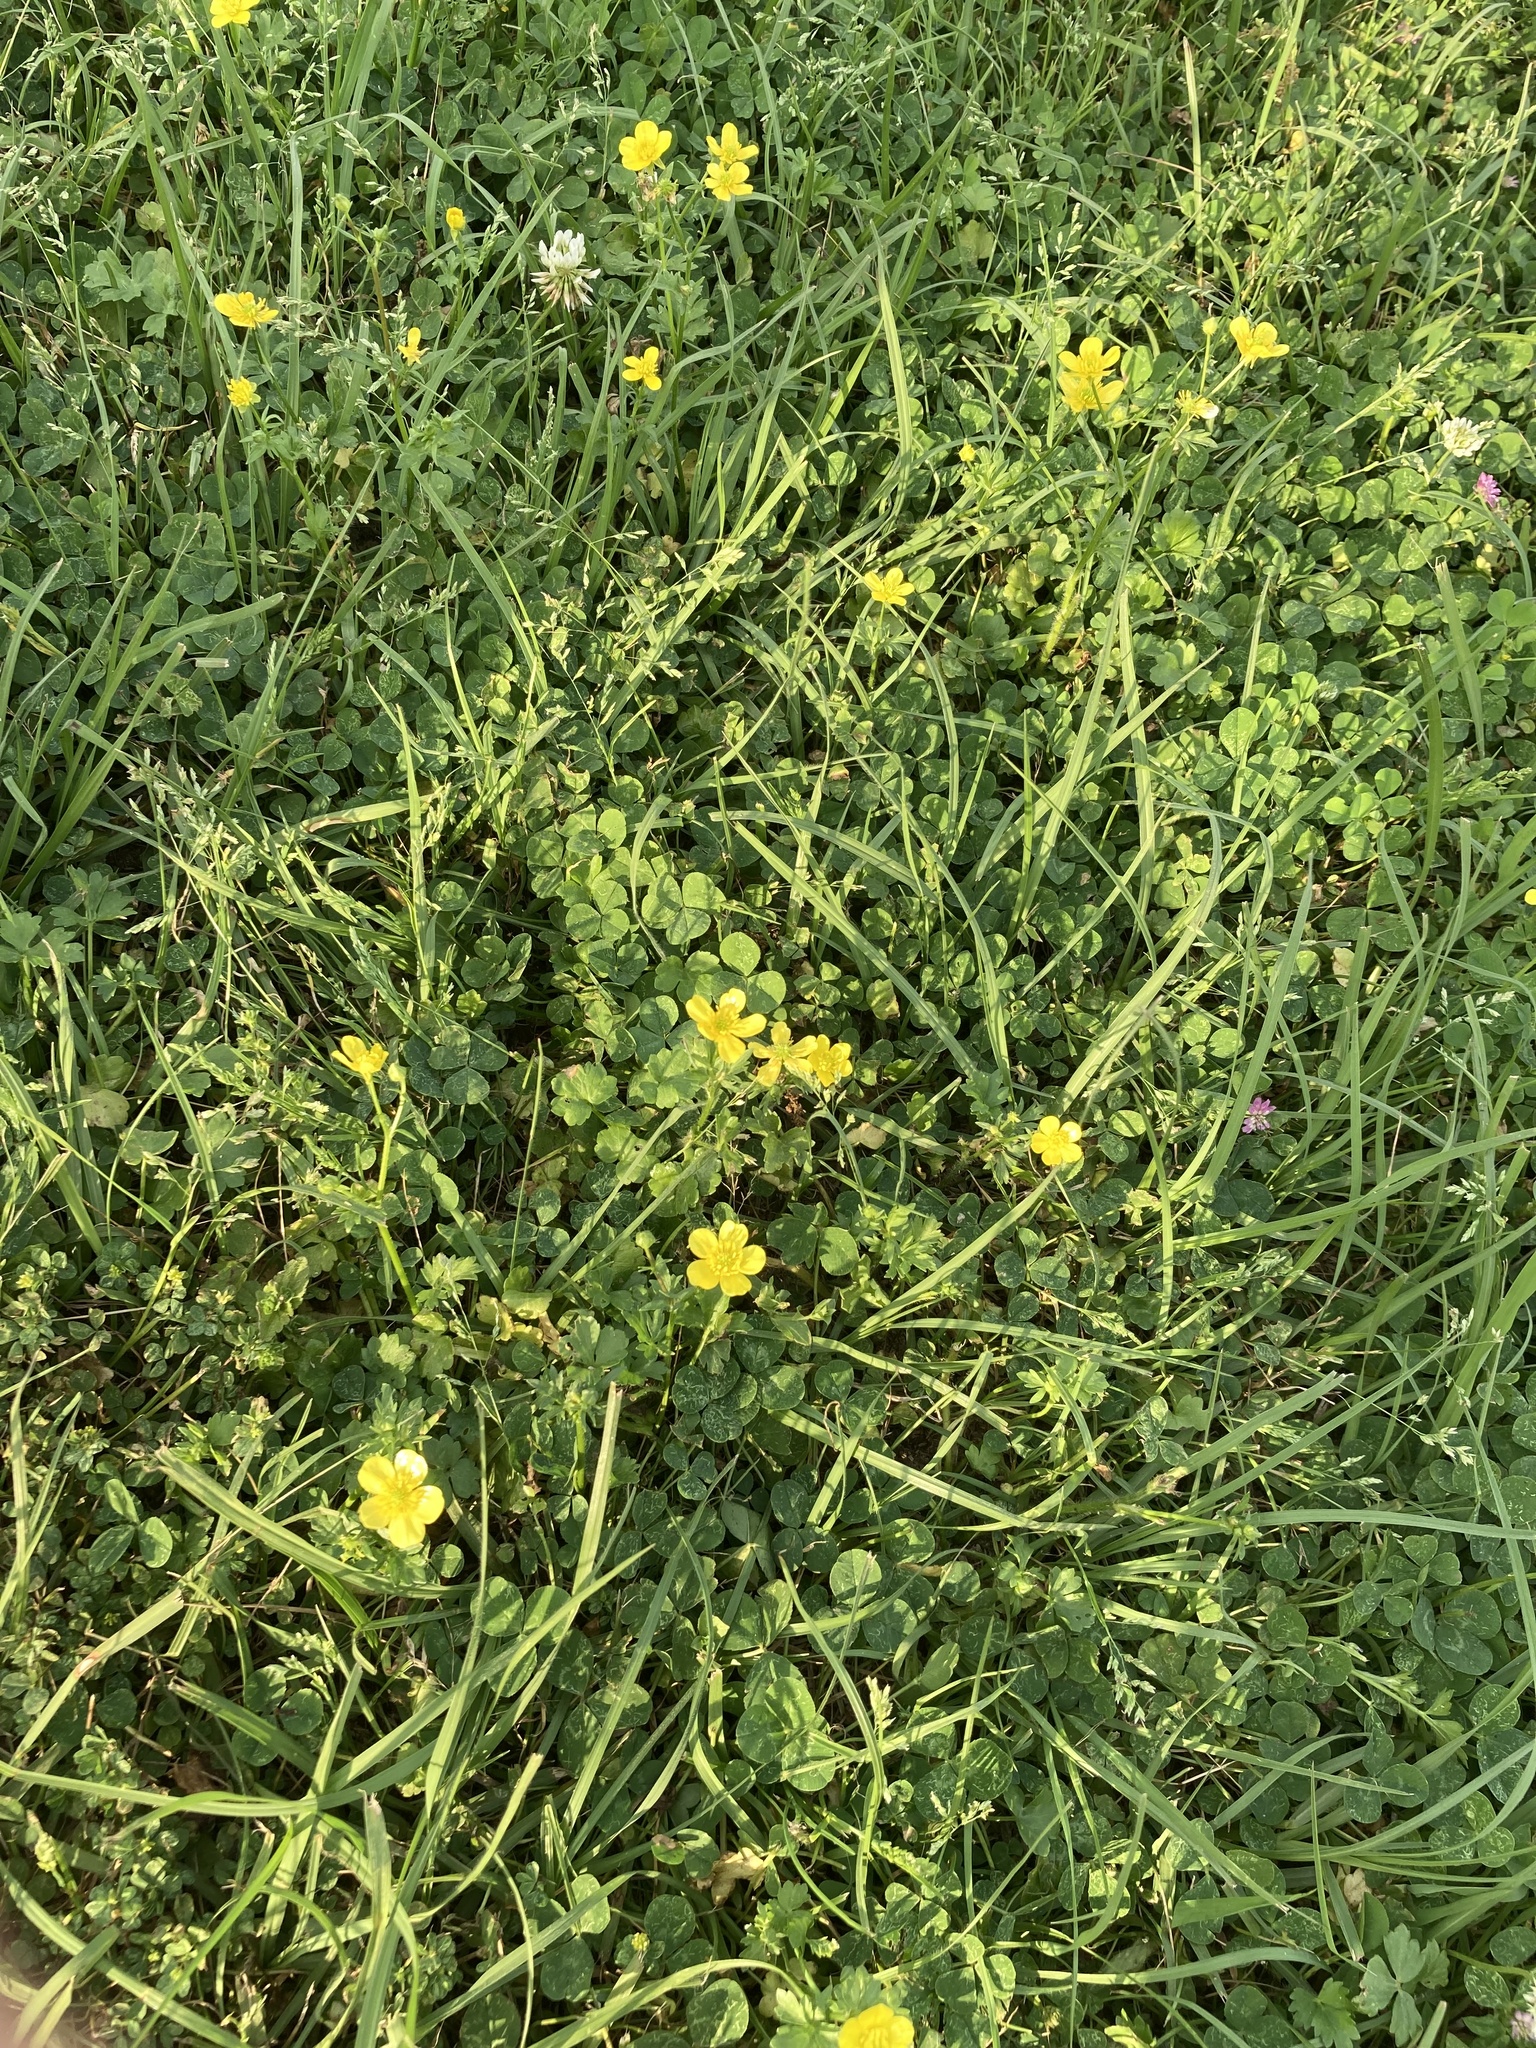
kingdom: Plantae
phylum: Tracheophyta
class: Magnoliopsida
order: Fabales
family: Fabaceae
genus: Trifolium
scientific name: Trifolium repens
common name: White clover
